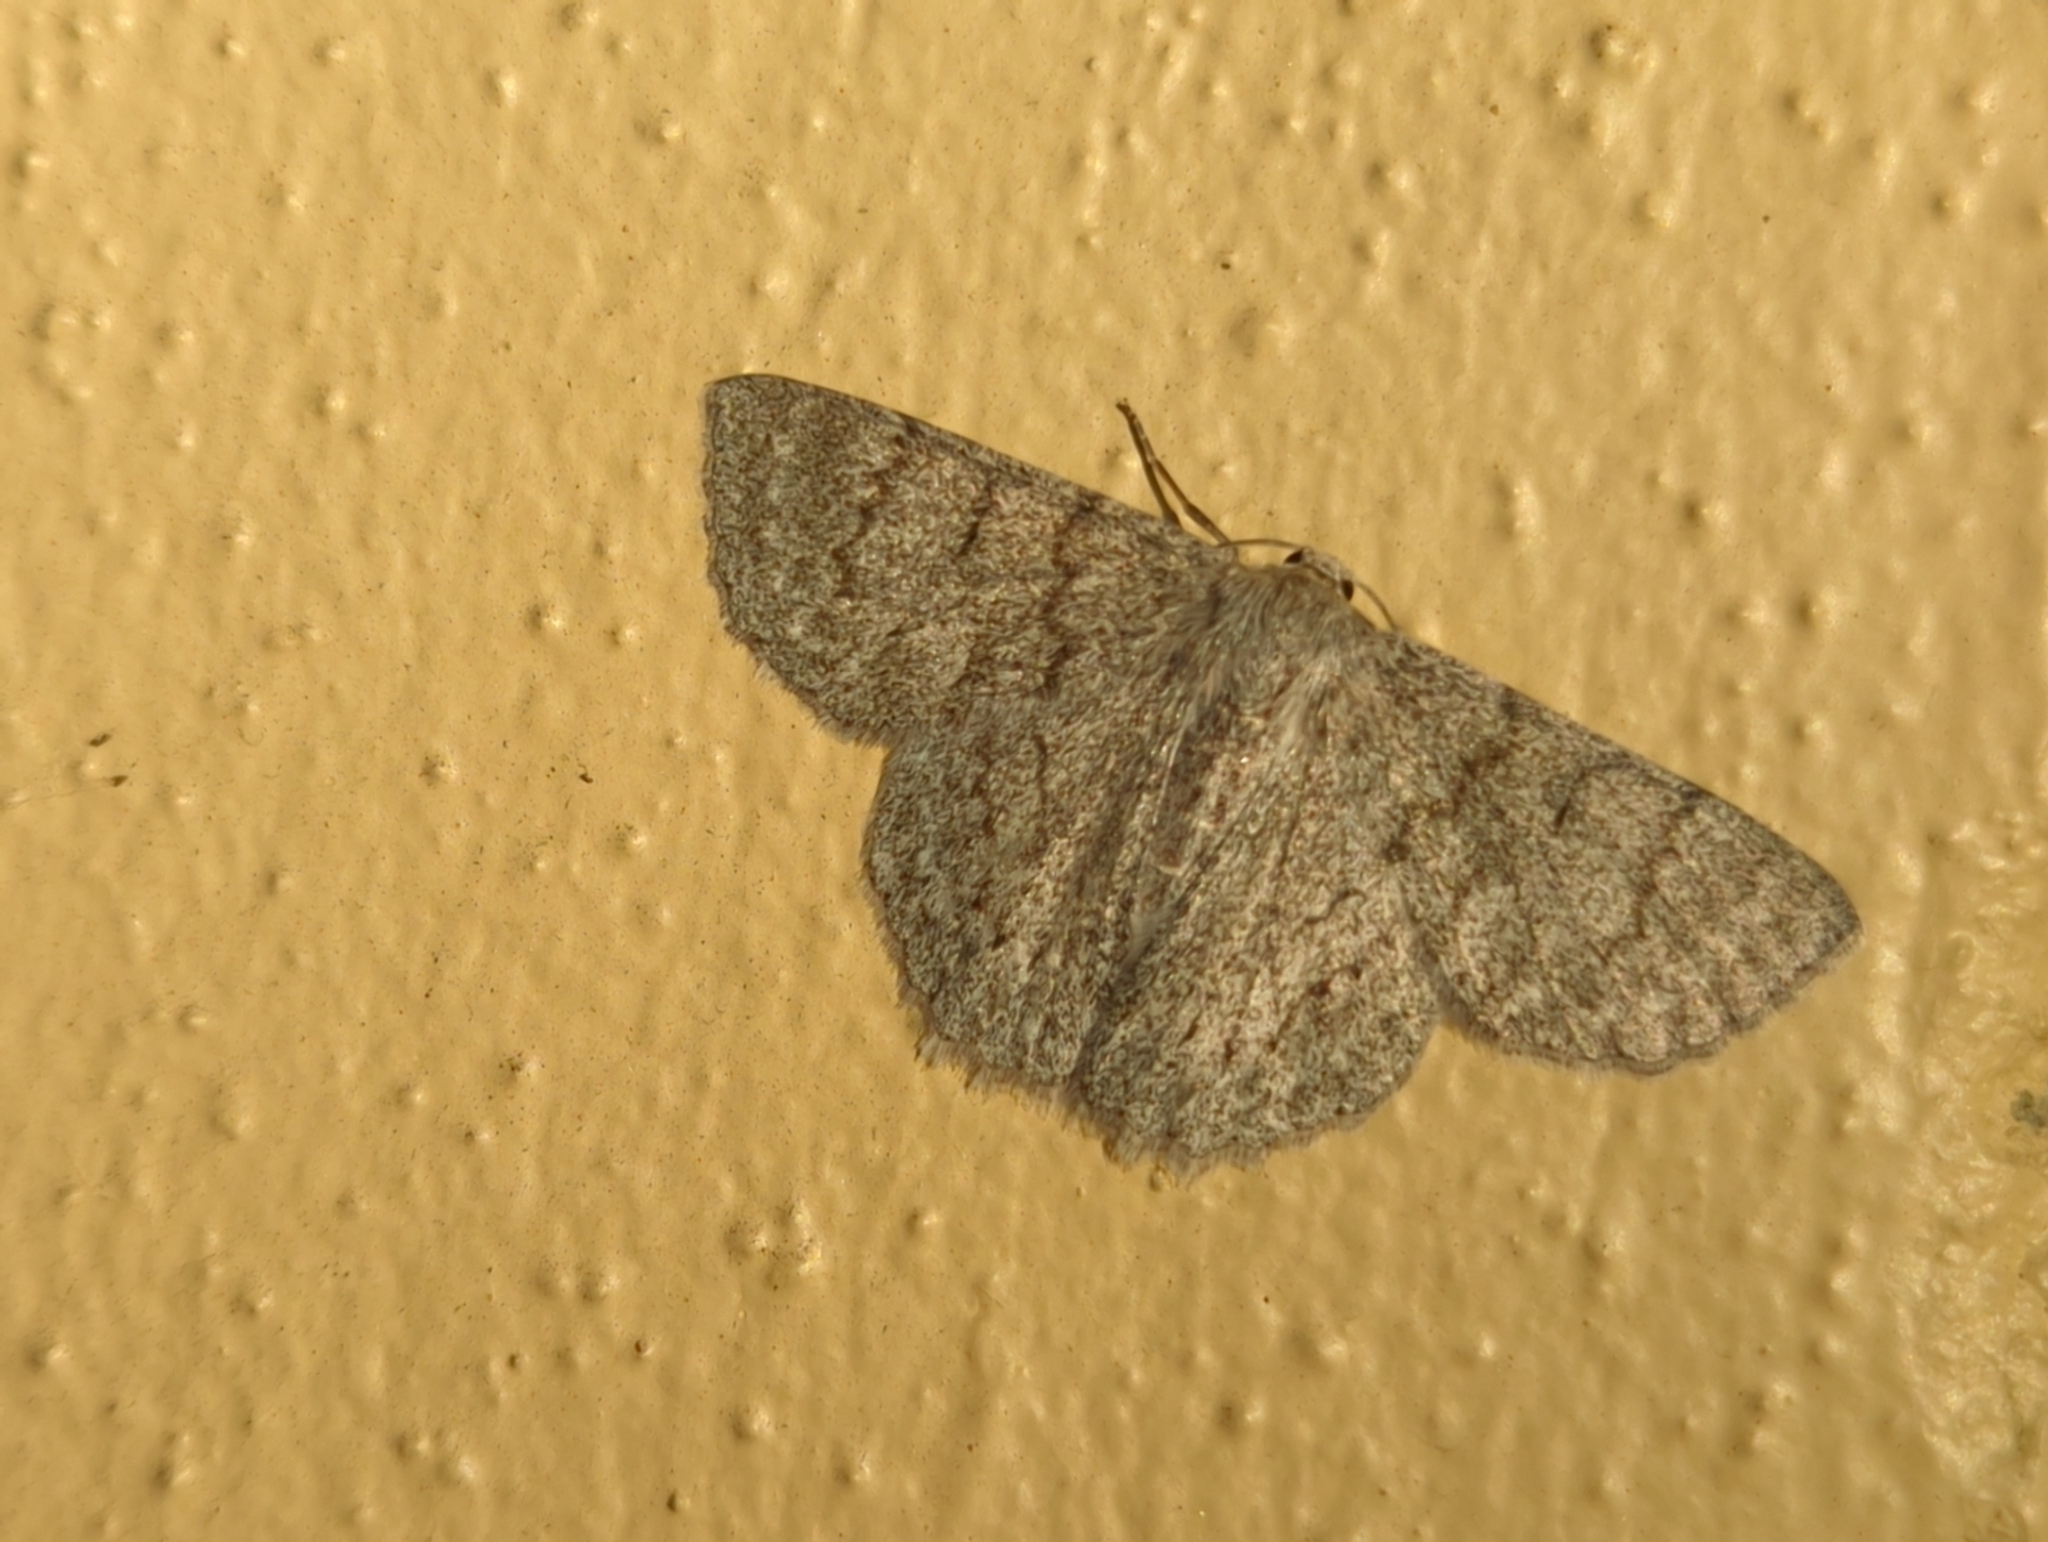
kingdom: Animalia
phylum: Arthropoda
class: Insecta
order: Lepidoptera
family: Geometridae
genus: Crypsiphona
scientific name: Crypsiphona ocultaria
